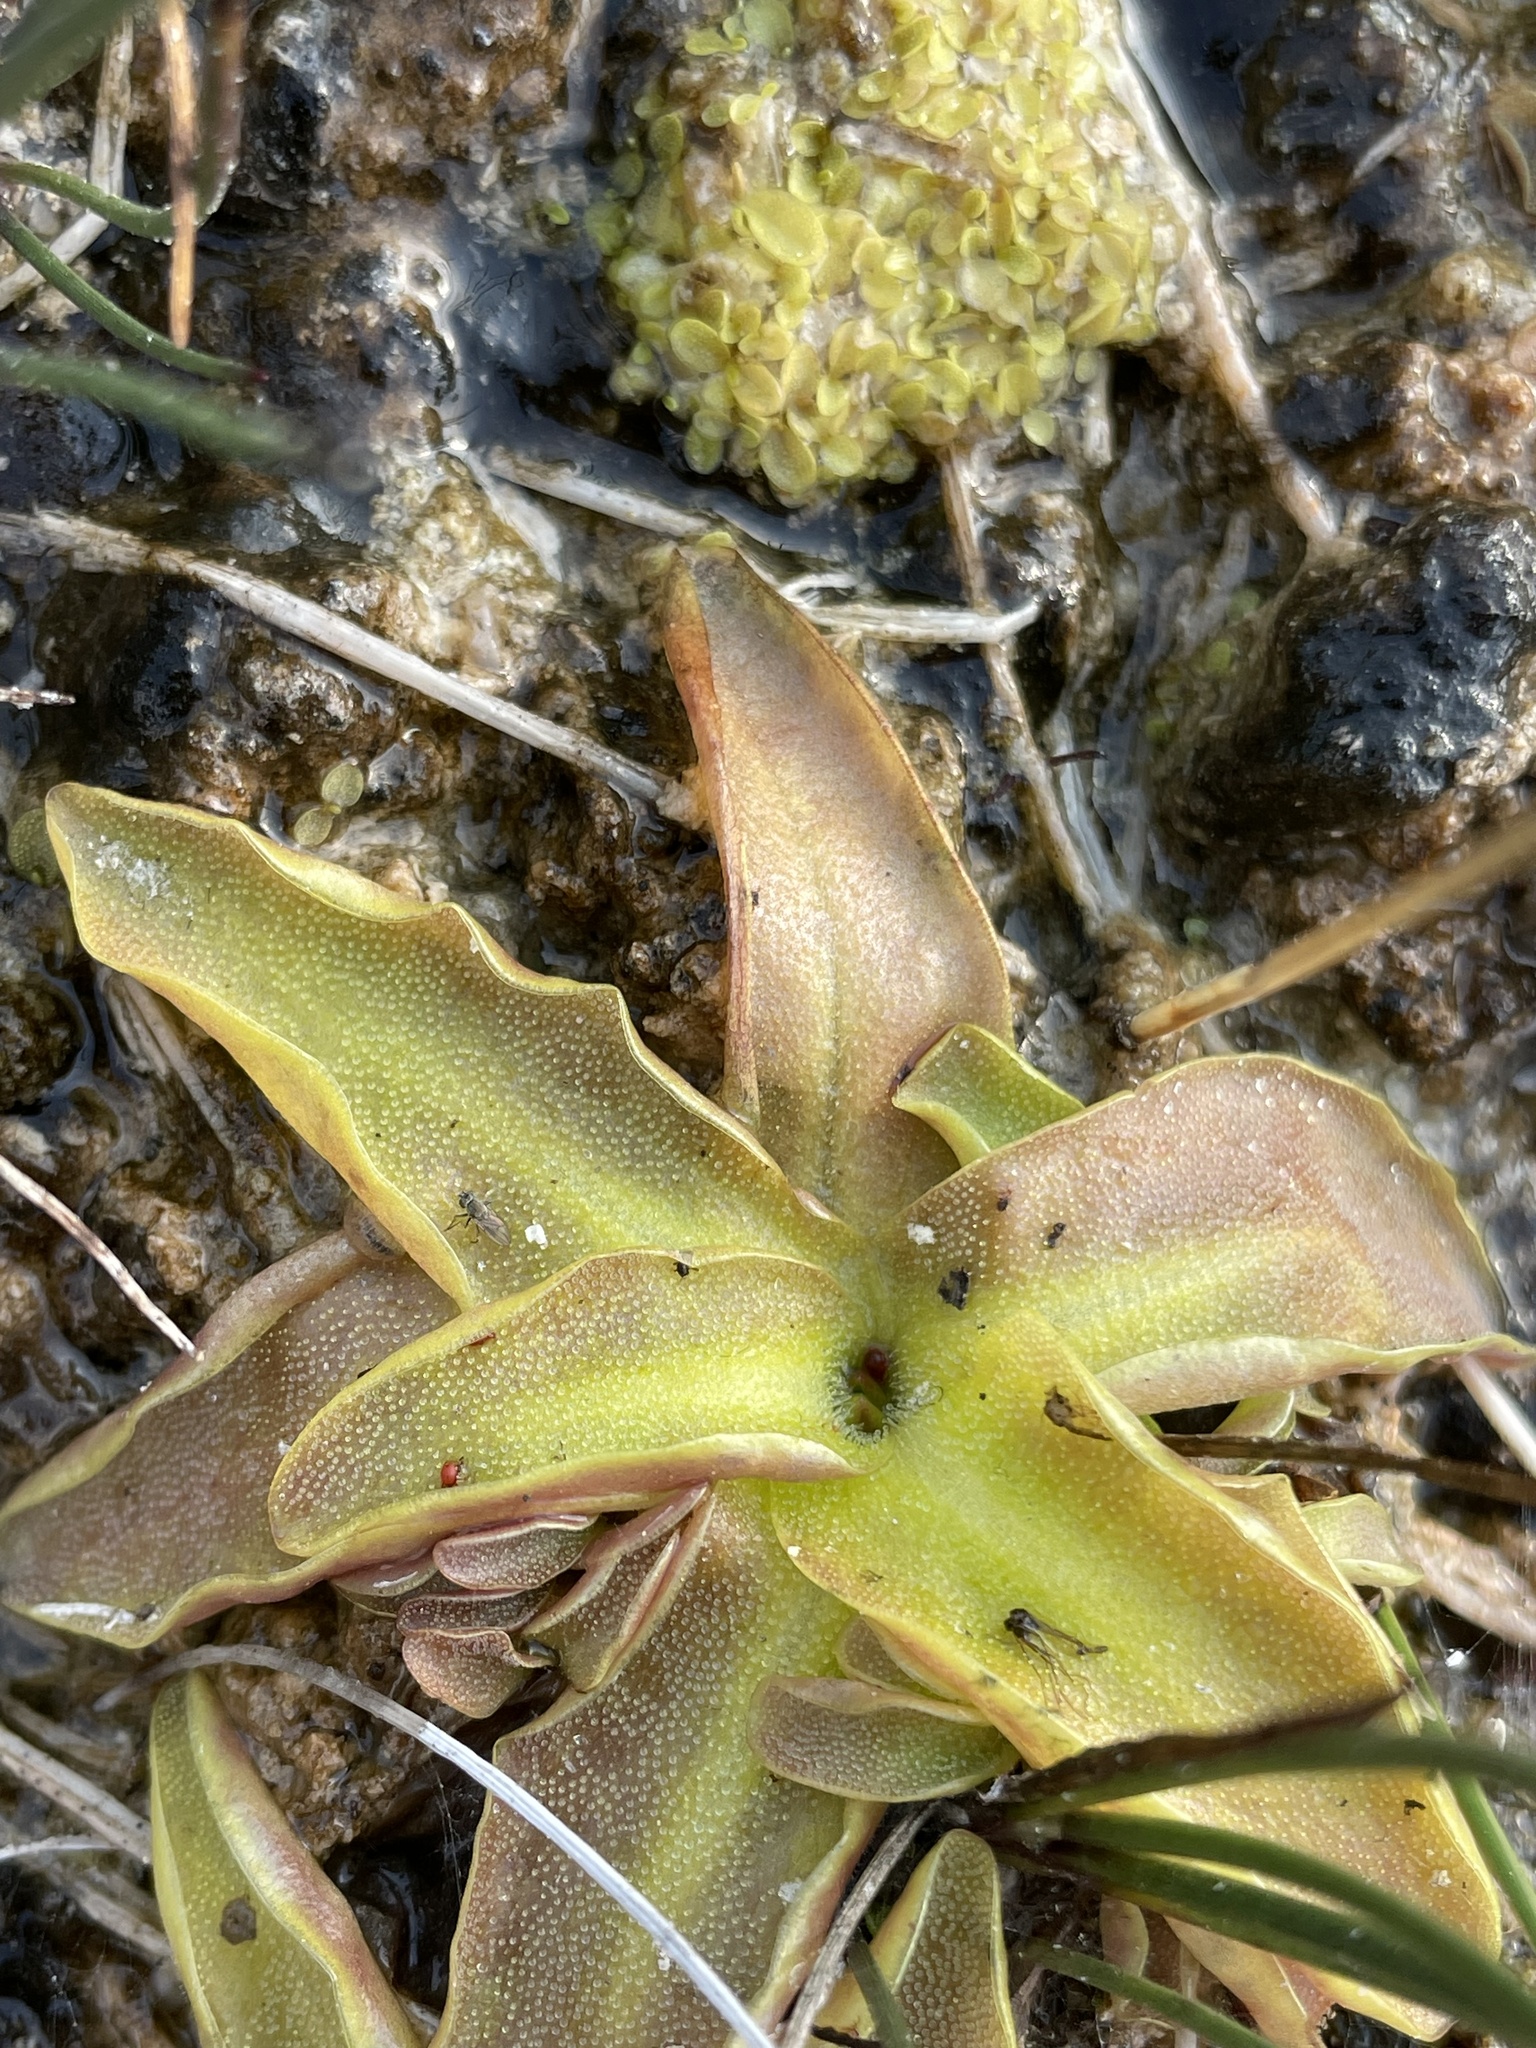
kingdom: Plantae
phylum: Tracheophyta
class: Magnoliopsida
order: Lamiales
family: Lentibulariaceae
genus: Pinguicula
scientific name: Pinguicula vulgaris
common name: Common butterwort
